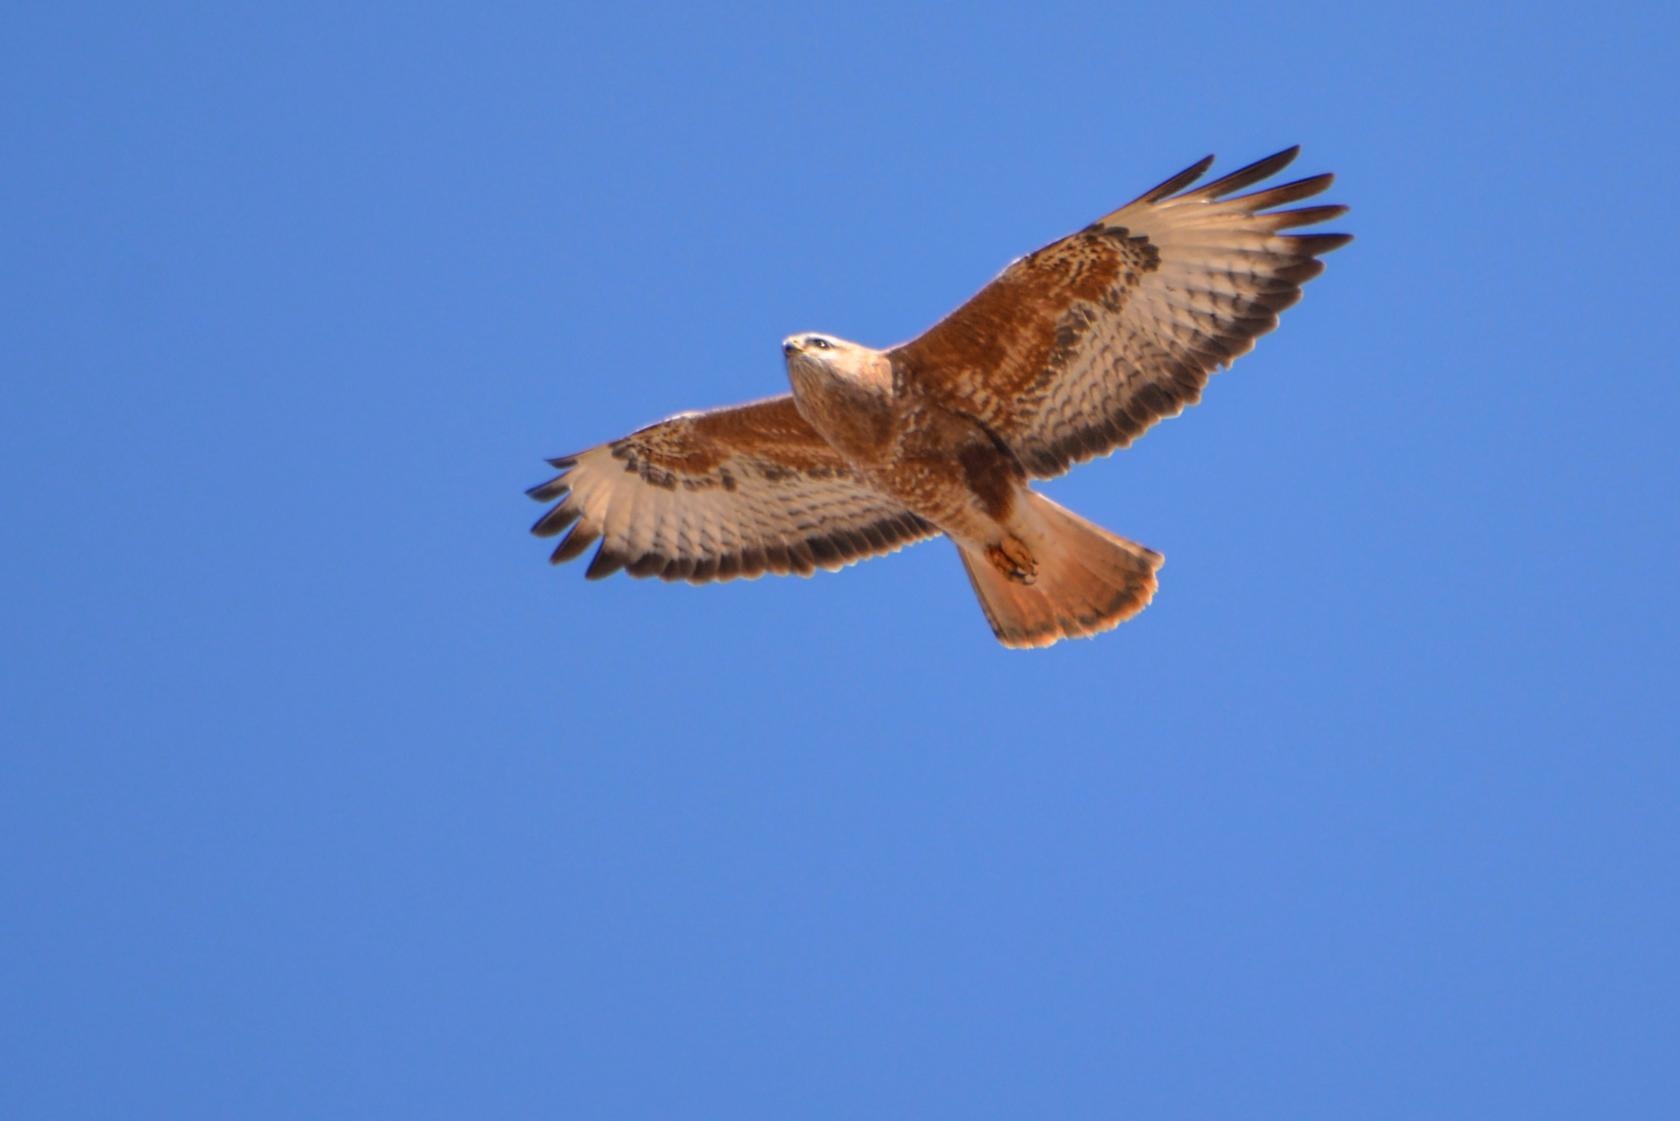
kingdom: Animalia
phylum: Chordata
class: Aves
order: Accipitriformes
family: Accipitridae
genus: Buteo
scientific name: Buteo buteo
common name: Common buzzard
